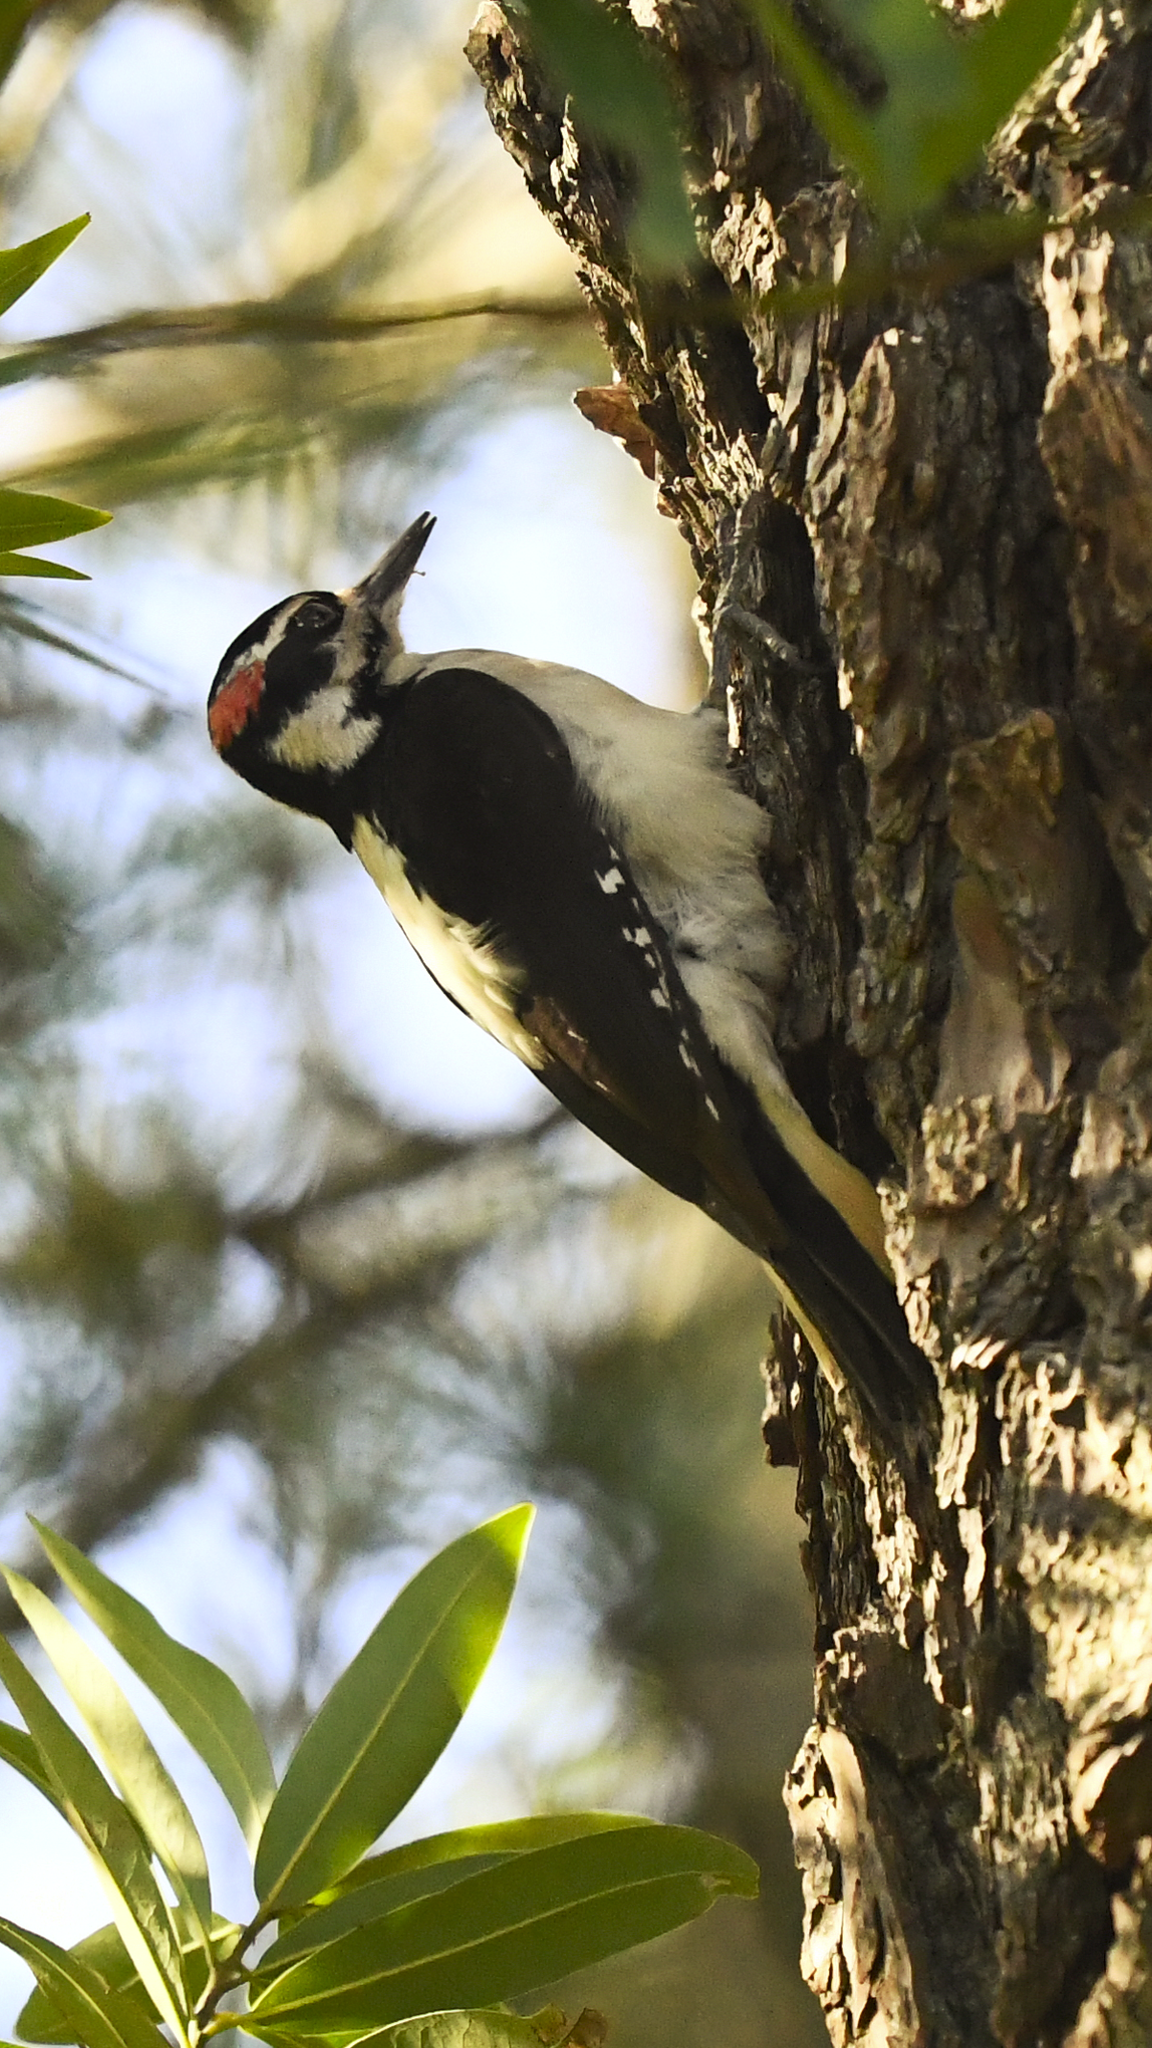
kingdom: Animalia
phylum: Chordata
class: Aves
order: Piciformes
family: Picidae
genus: Leuconotopicus
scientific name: Leuconotopicus villosus
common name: Hairy woodpecker
